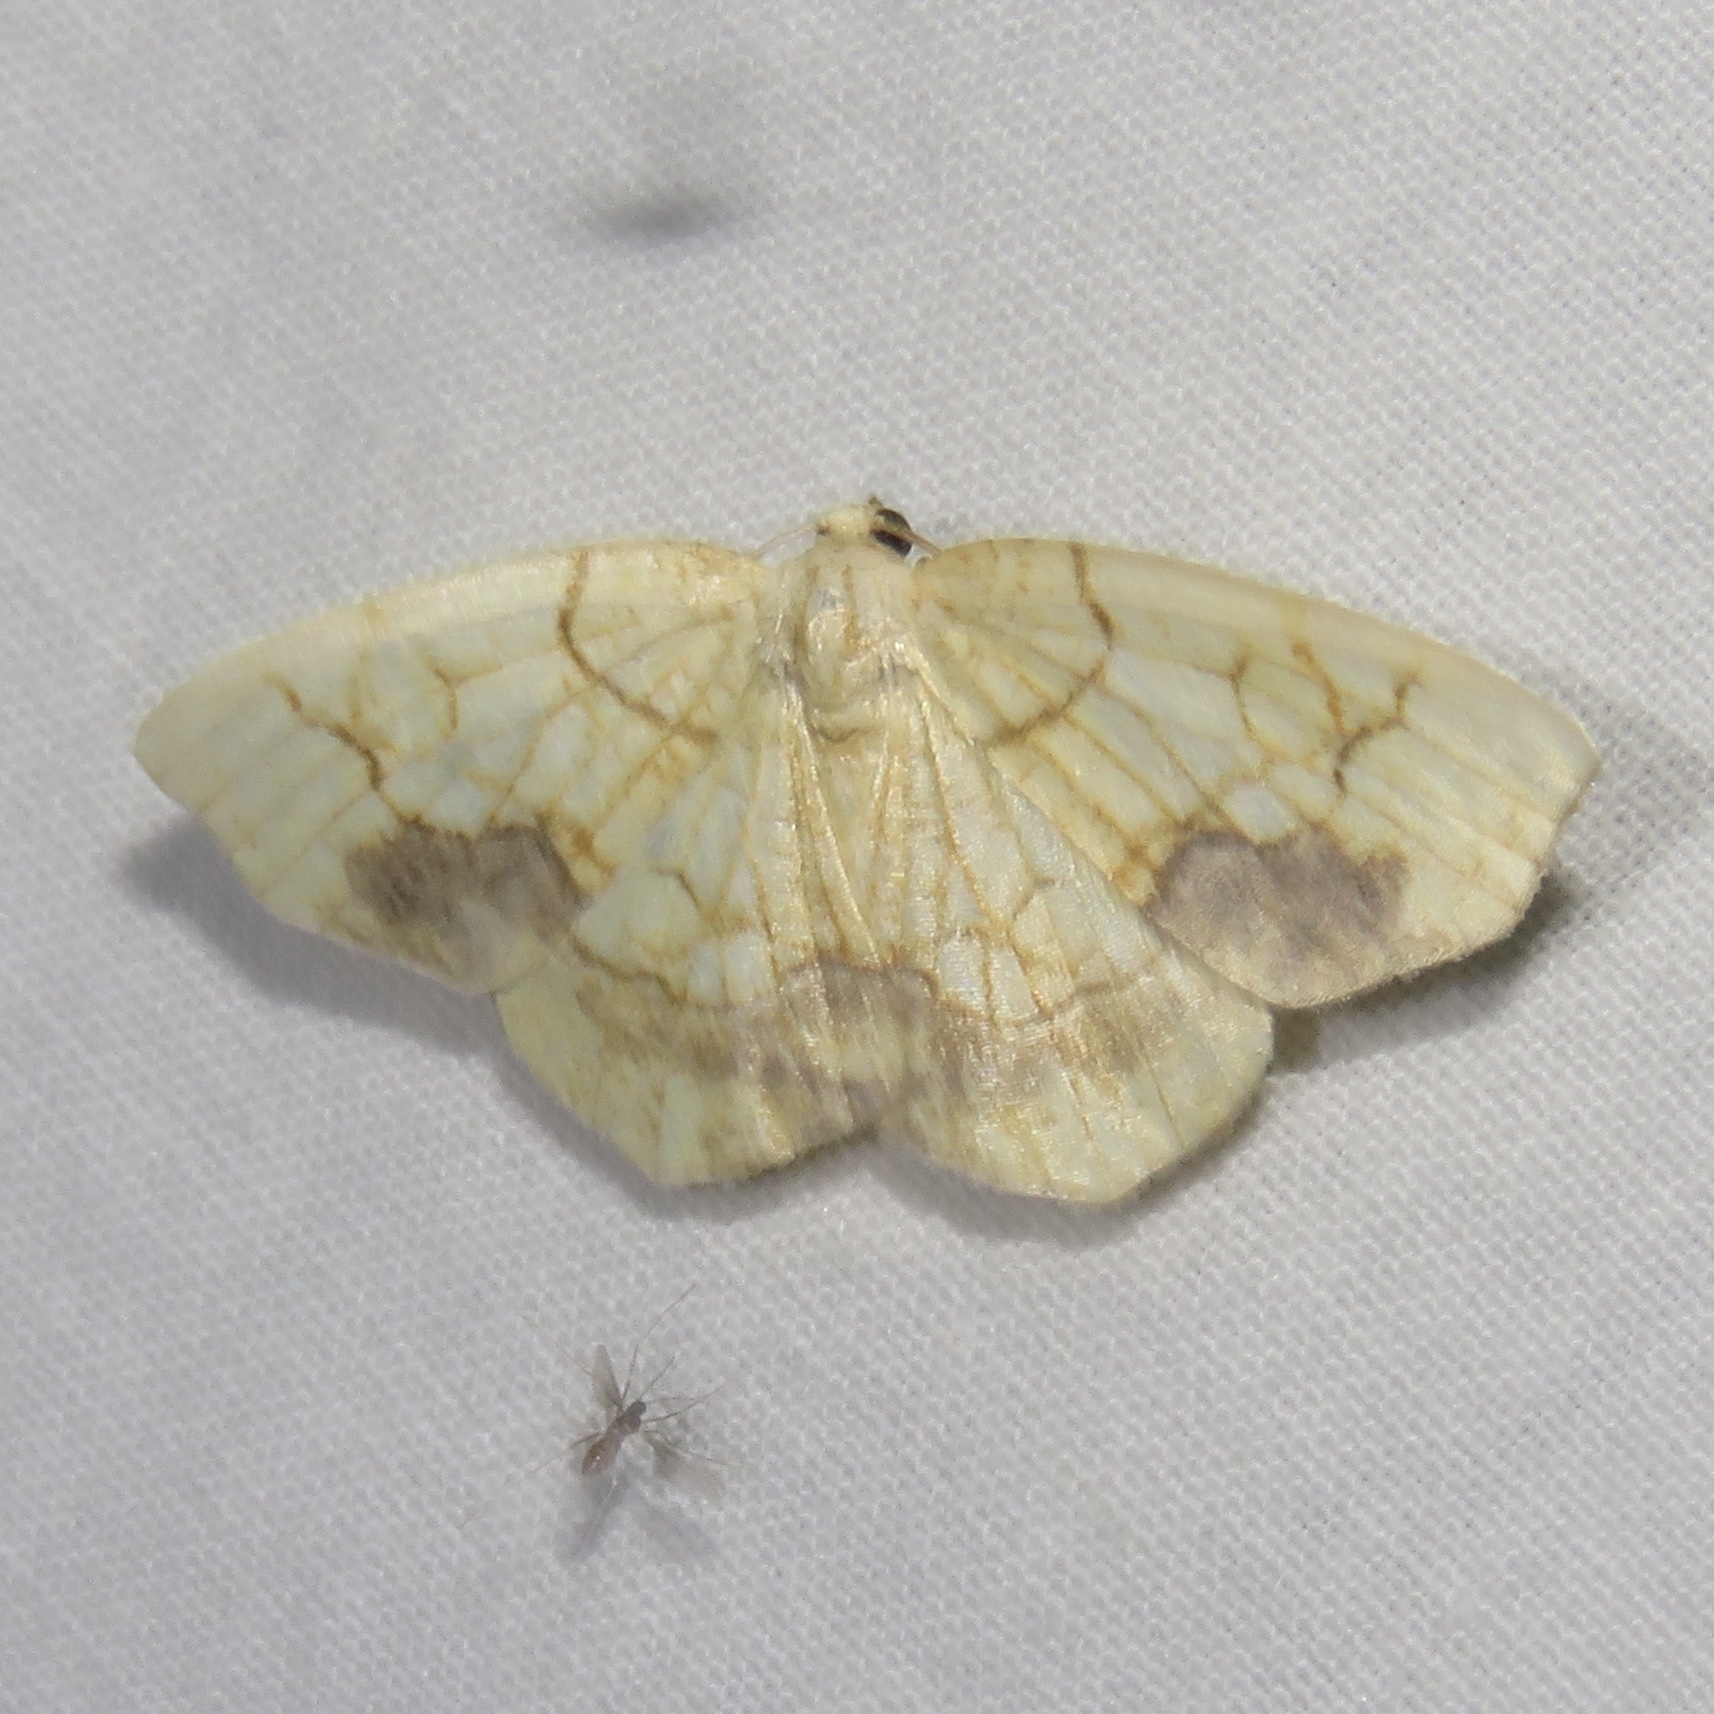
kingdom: Animalia
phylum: Arthropoda
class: Insecta
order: Lepidoptera
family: Geometridae
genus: Nematocampa
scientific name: Nematocampa resistaria
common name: Horned spanworm moth
